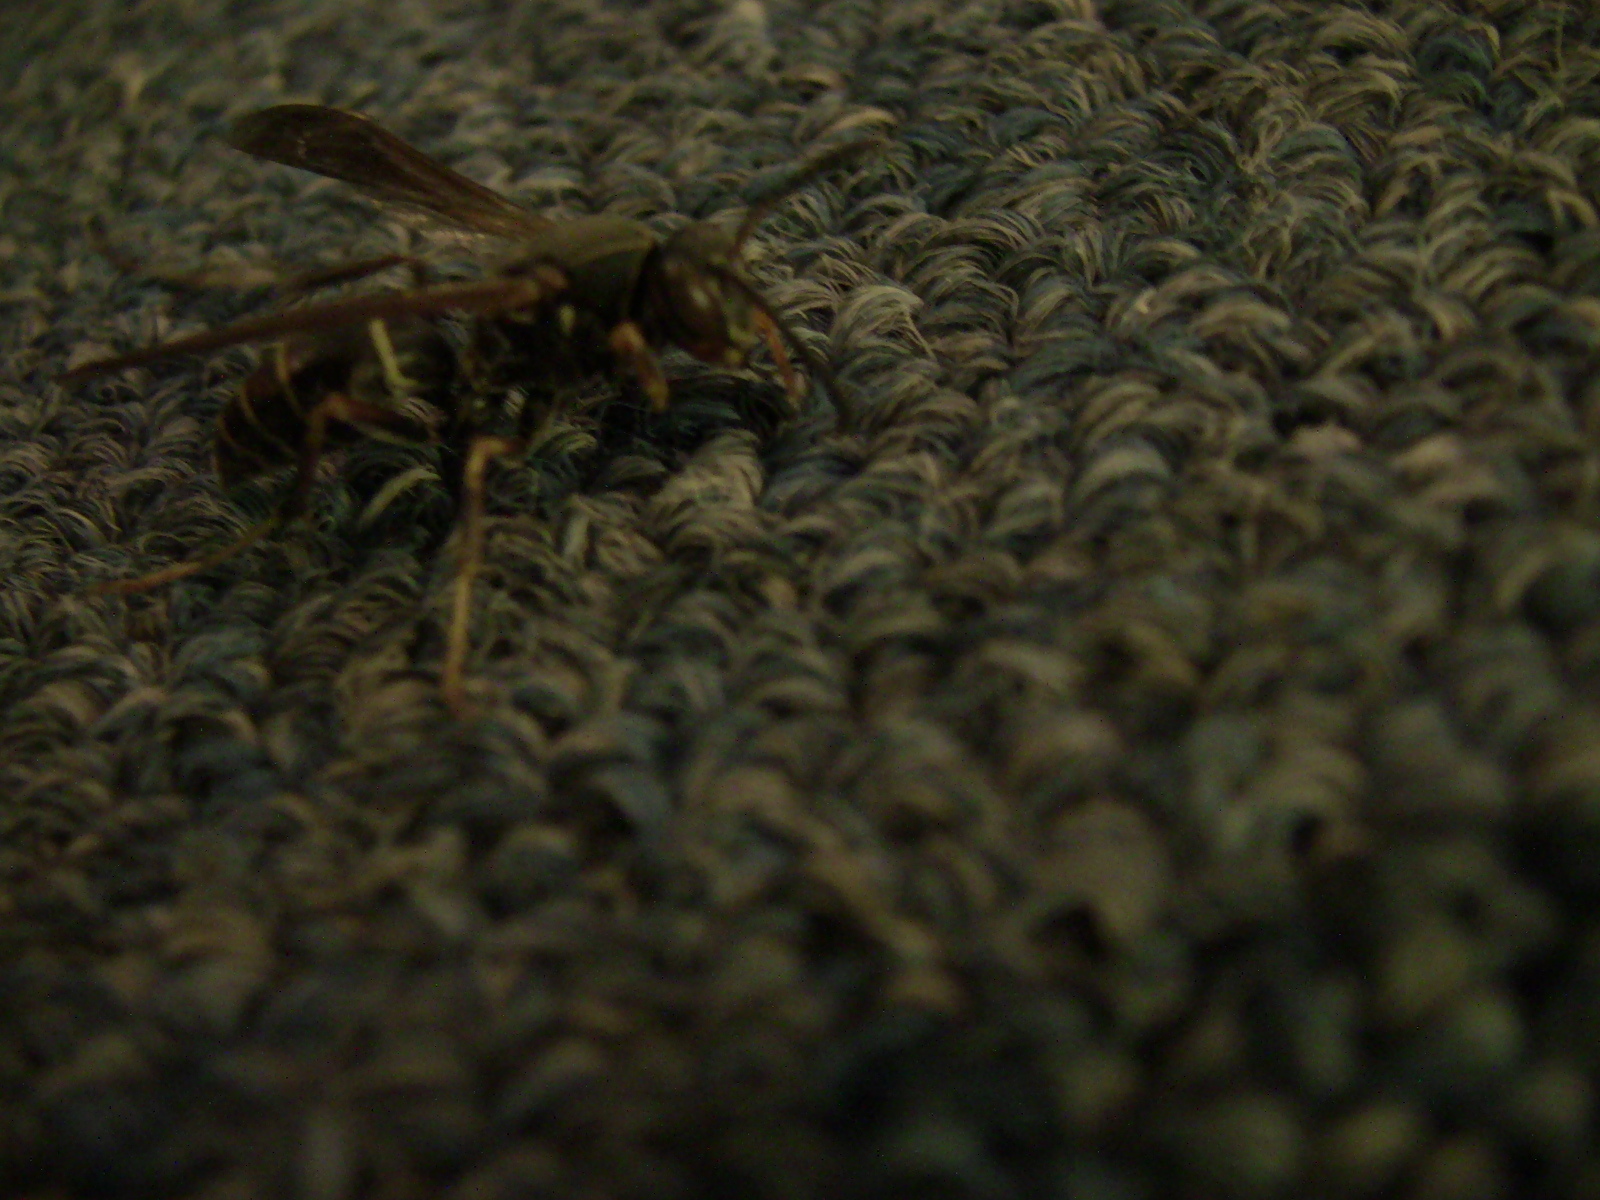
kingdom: Animalia
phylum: Arthropoda
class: Insecta
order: Hymenoptera
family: Eumenidae
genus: Polistes
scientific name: Polistes fuscatus
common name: Dark paper wasp
